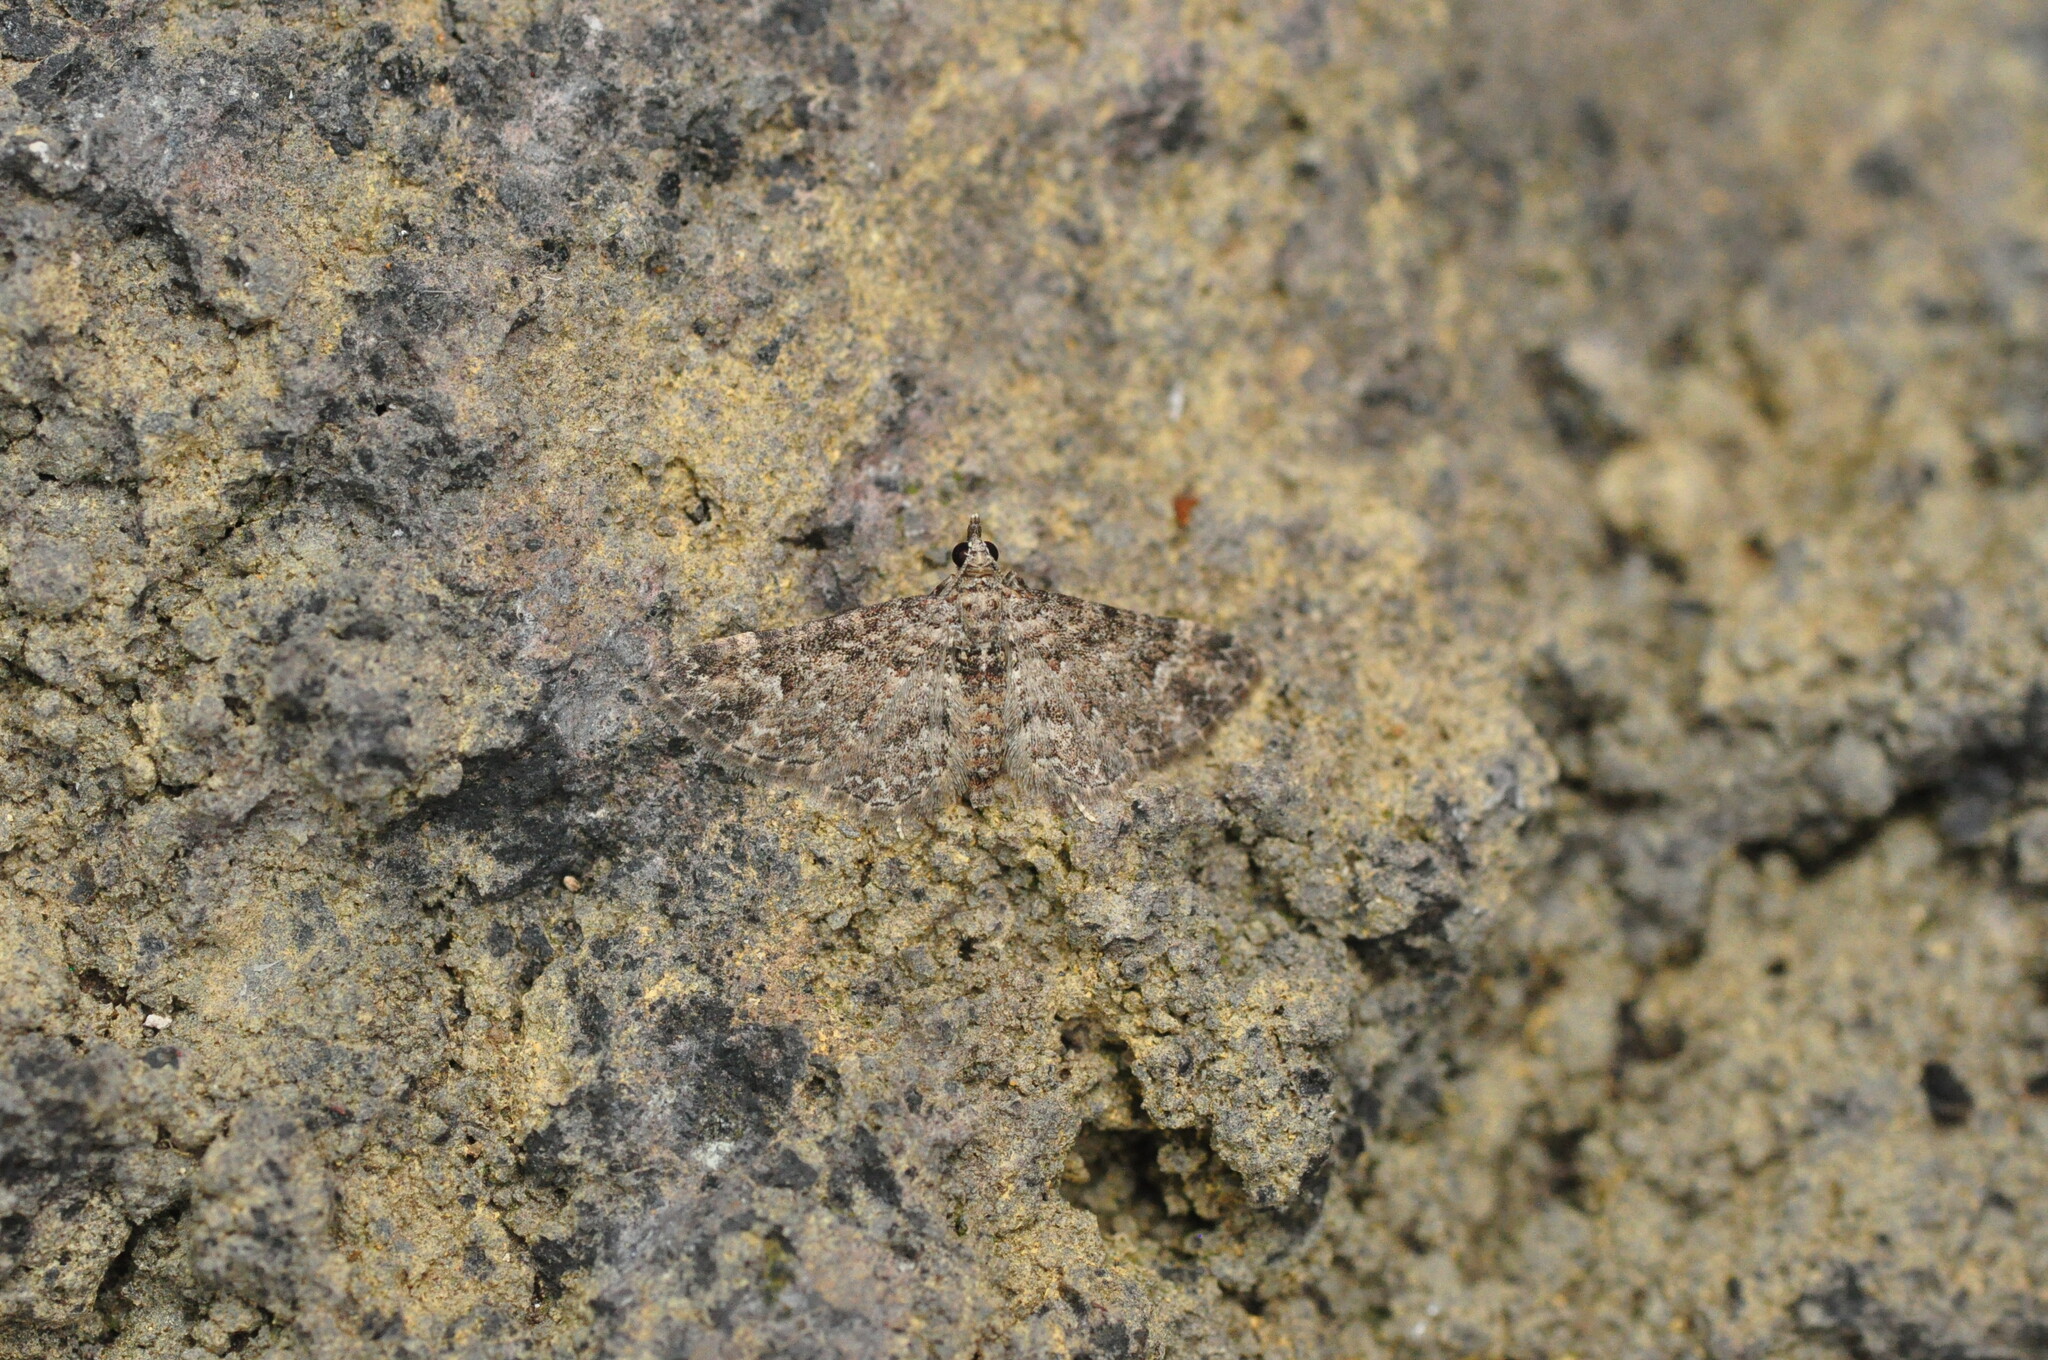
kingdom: Animalia
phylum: Arthropoda
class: Insecta
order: Lepidoptera
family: Geometridae
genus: Gymnoscelis
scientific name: Gymnoscelis rufifasciata
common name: Double-striped pug
